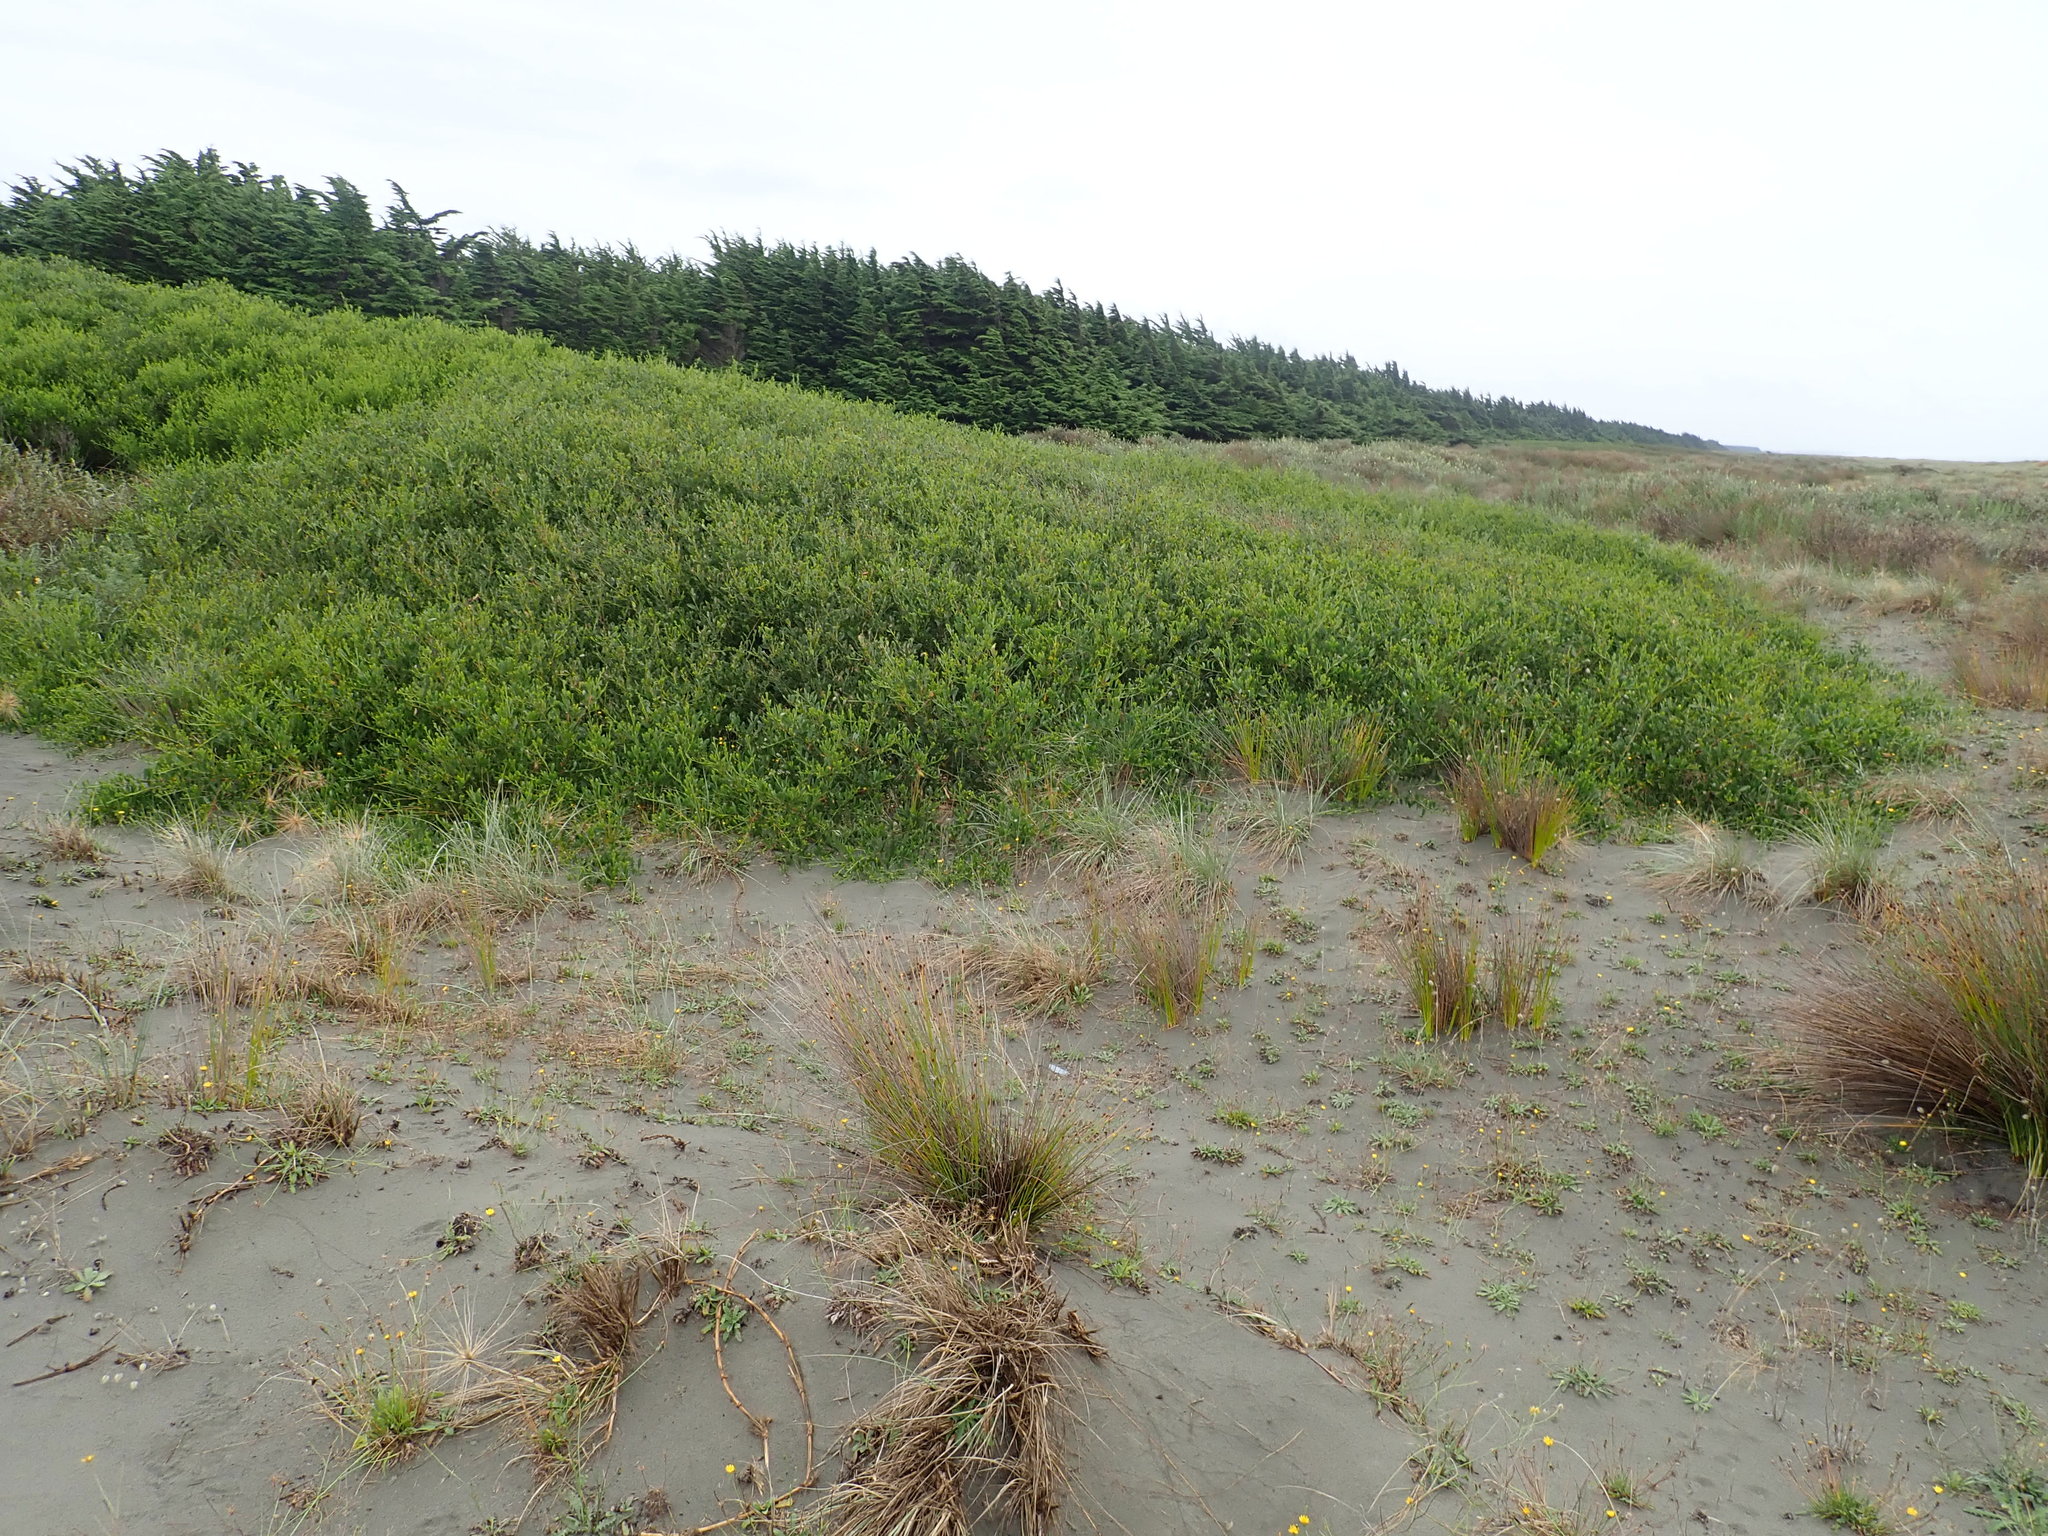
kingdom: Plantae
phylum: Tracheophyta
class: Magnoliopsida
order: Fabales
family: Fabaceae
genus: Acacia
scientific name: Acacia longifolia
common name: Sydney golden wattle
